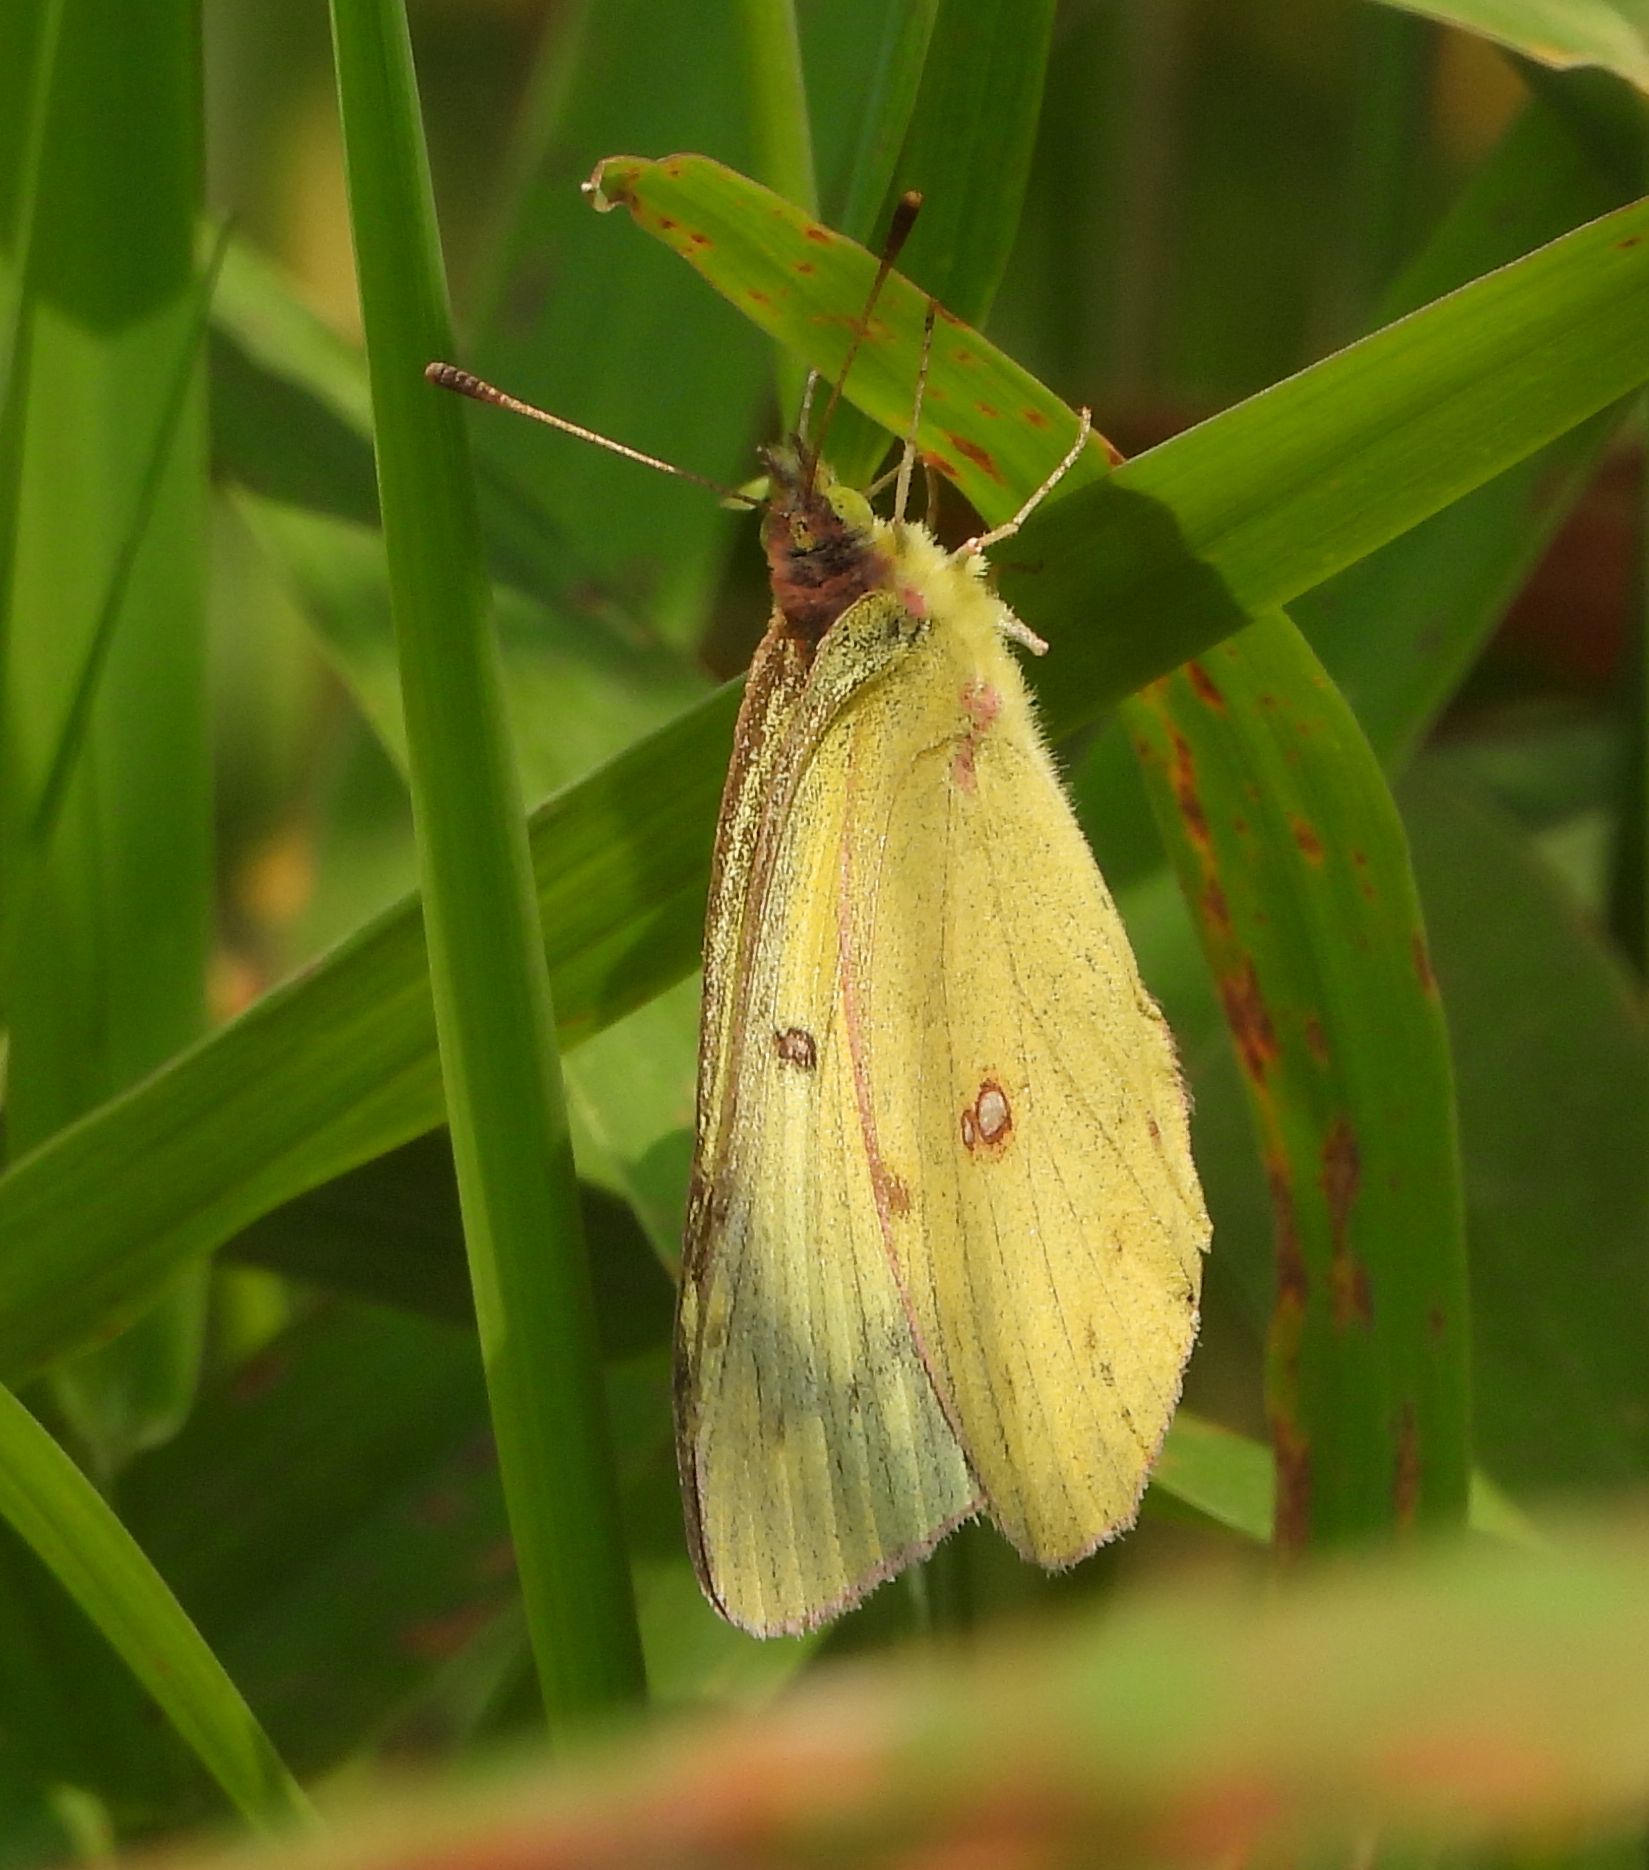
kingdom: Animalia
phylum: Arthropoda
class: Insecta
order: Lepidoptera
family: Pieridae
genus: Colias
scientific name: Colias philodice
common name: Clouded sulphur
